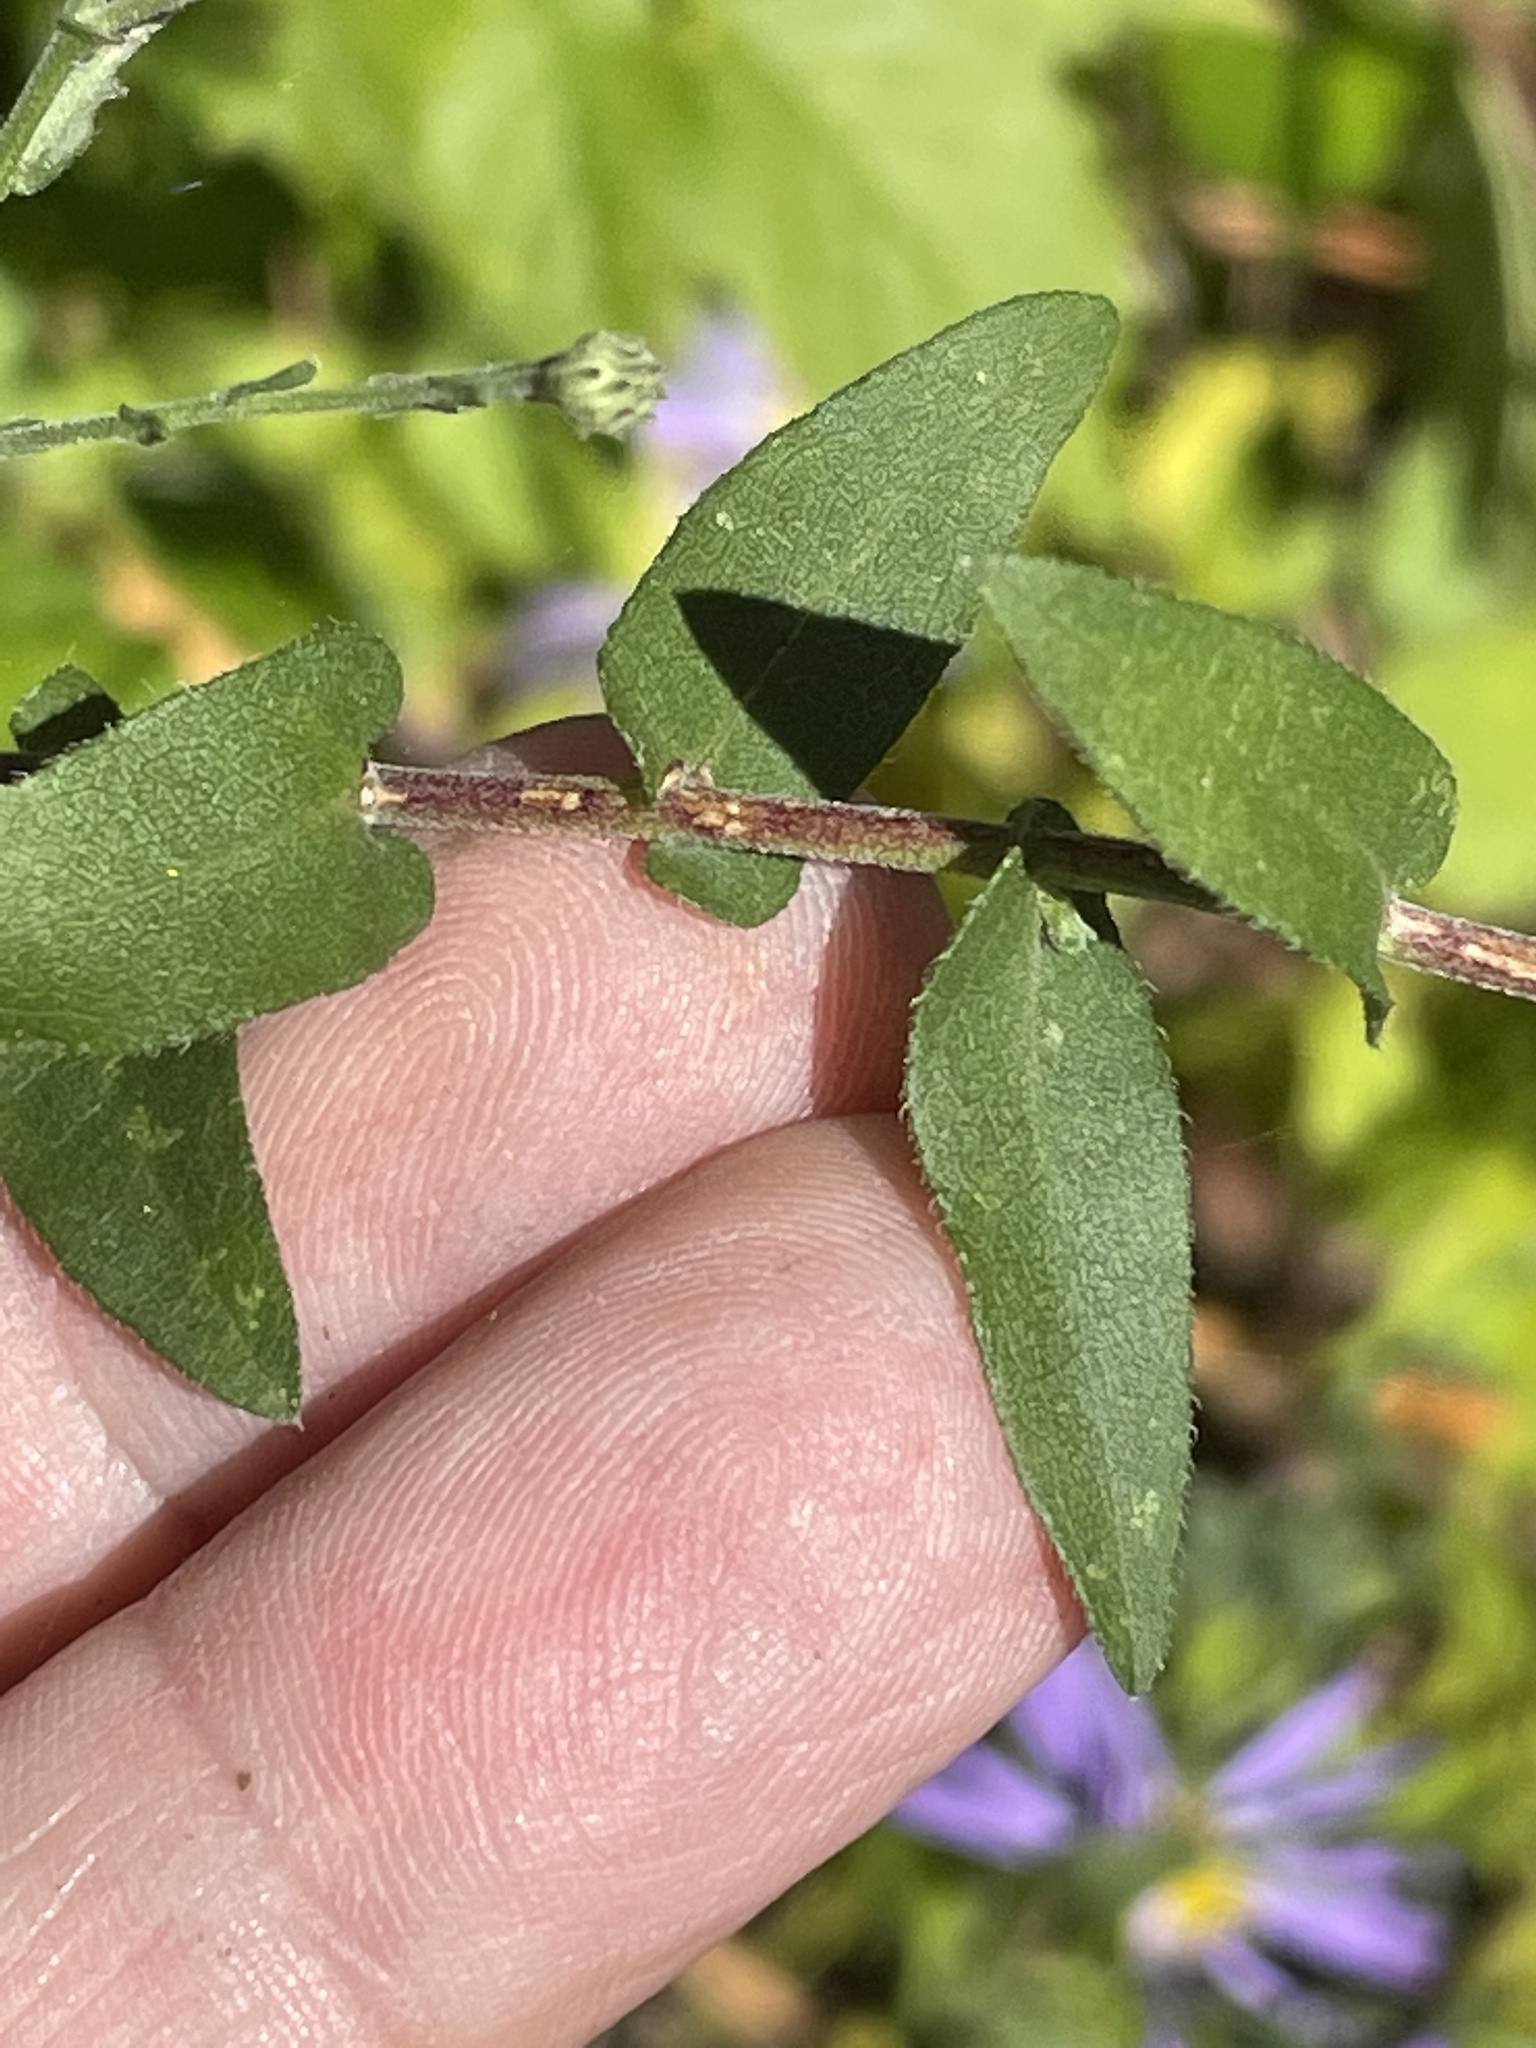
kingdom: Plantae
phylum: Tracheophyta
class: Magnoliopsida
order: Asterales
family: Asteraceae
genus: Symphyotrichum
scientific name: Symphyotrichum patens
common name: Late purple aster
